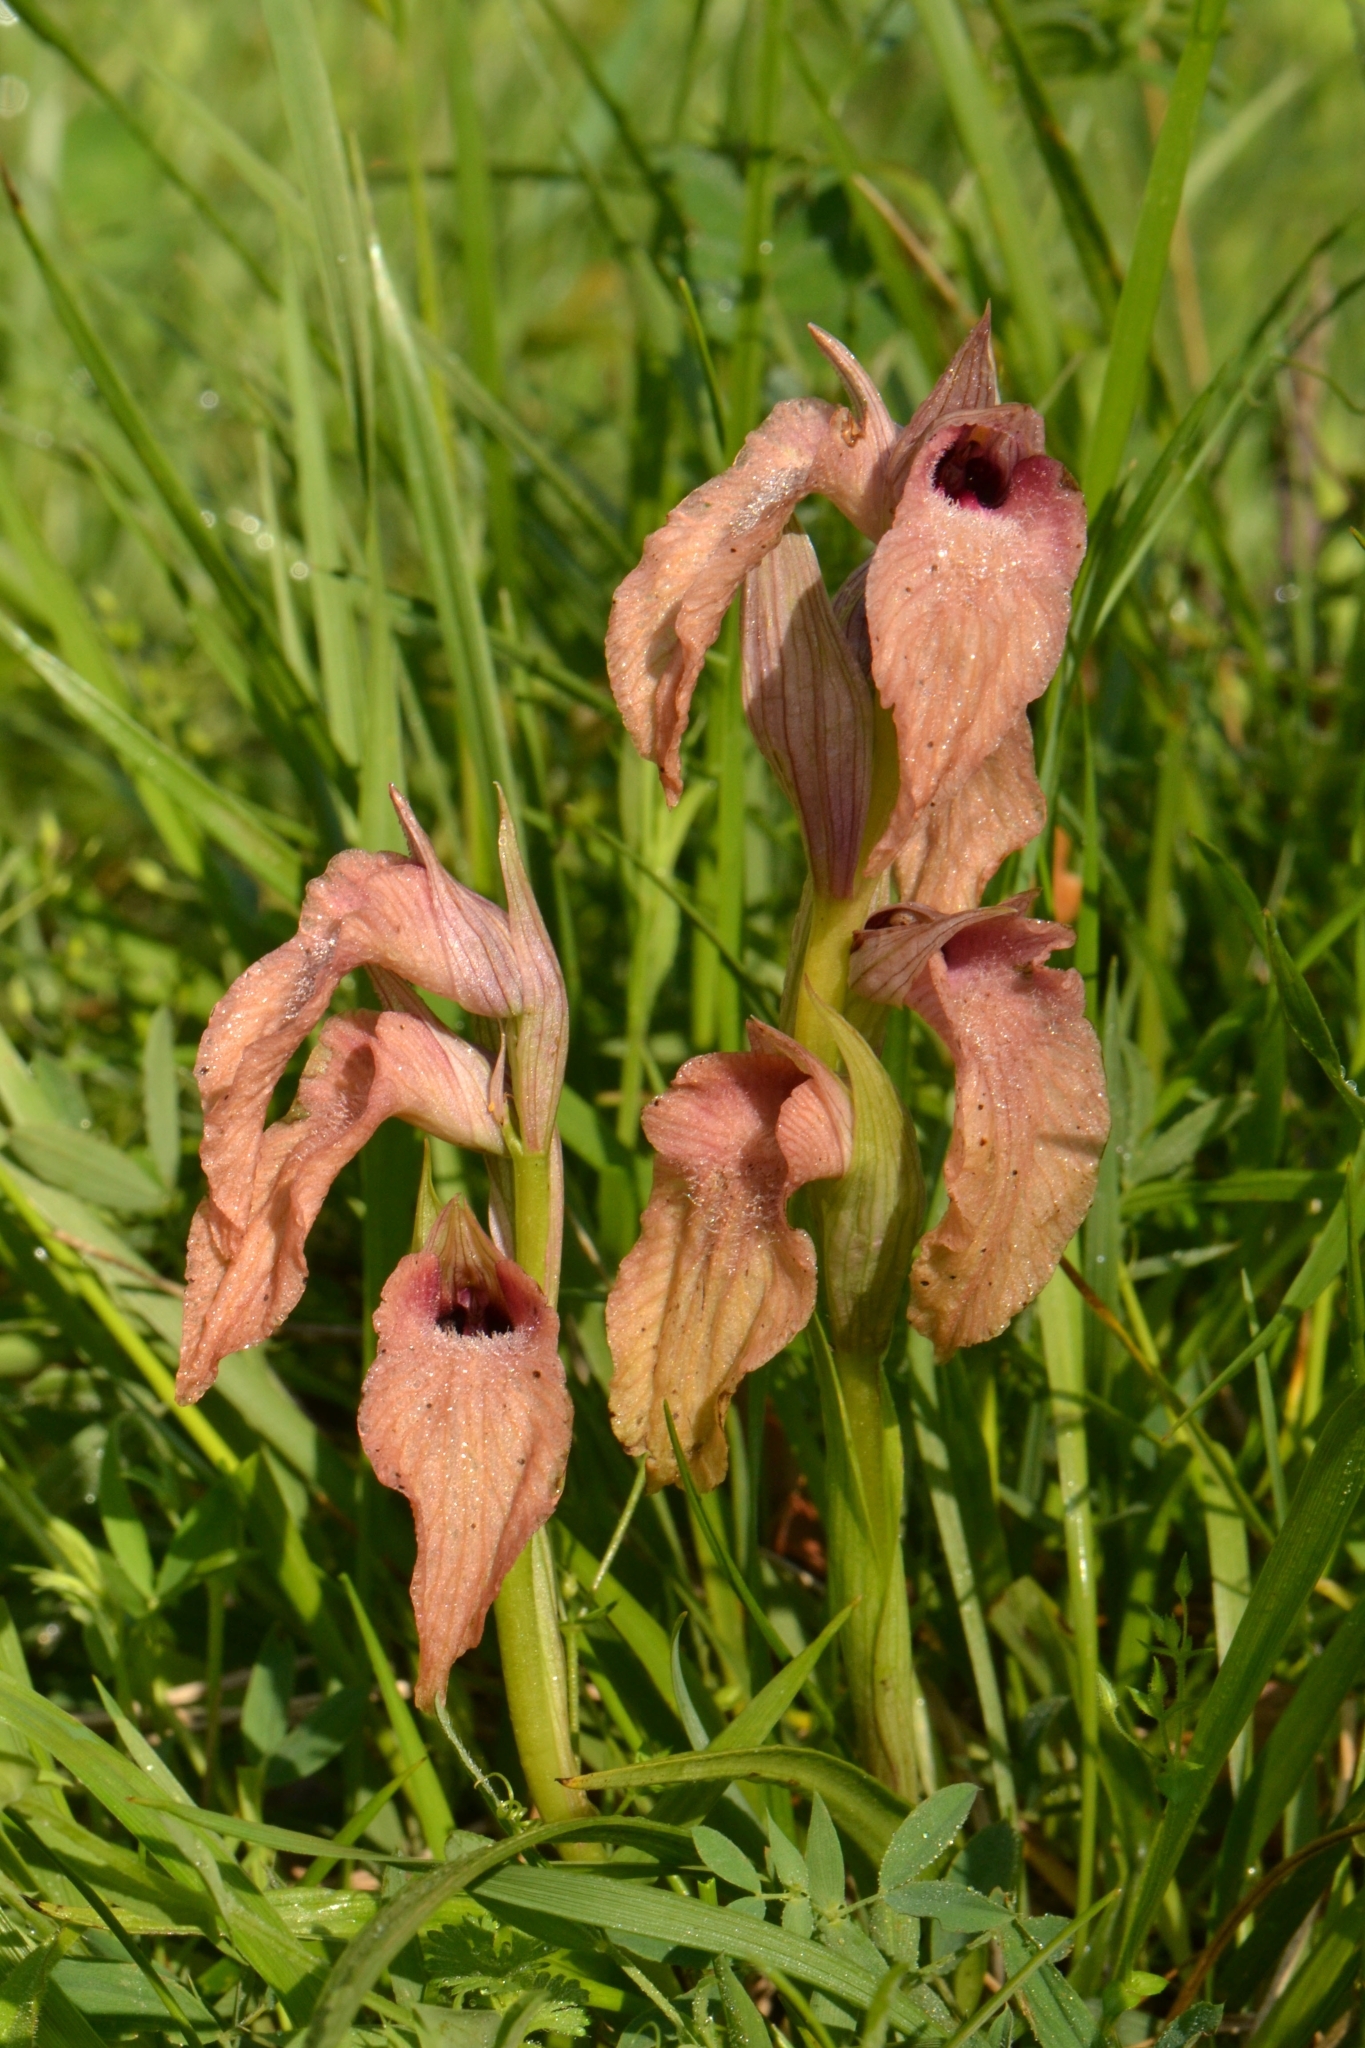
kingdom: Plantae
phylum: Tracheophyta
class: Liliopsida
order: Asparagales
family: Orchidaceae
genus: Serapias
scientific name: Serapias neglecta
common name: Neglected serapias
